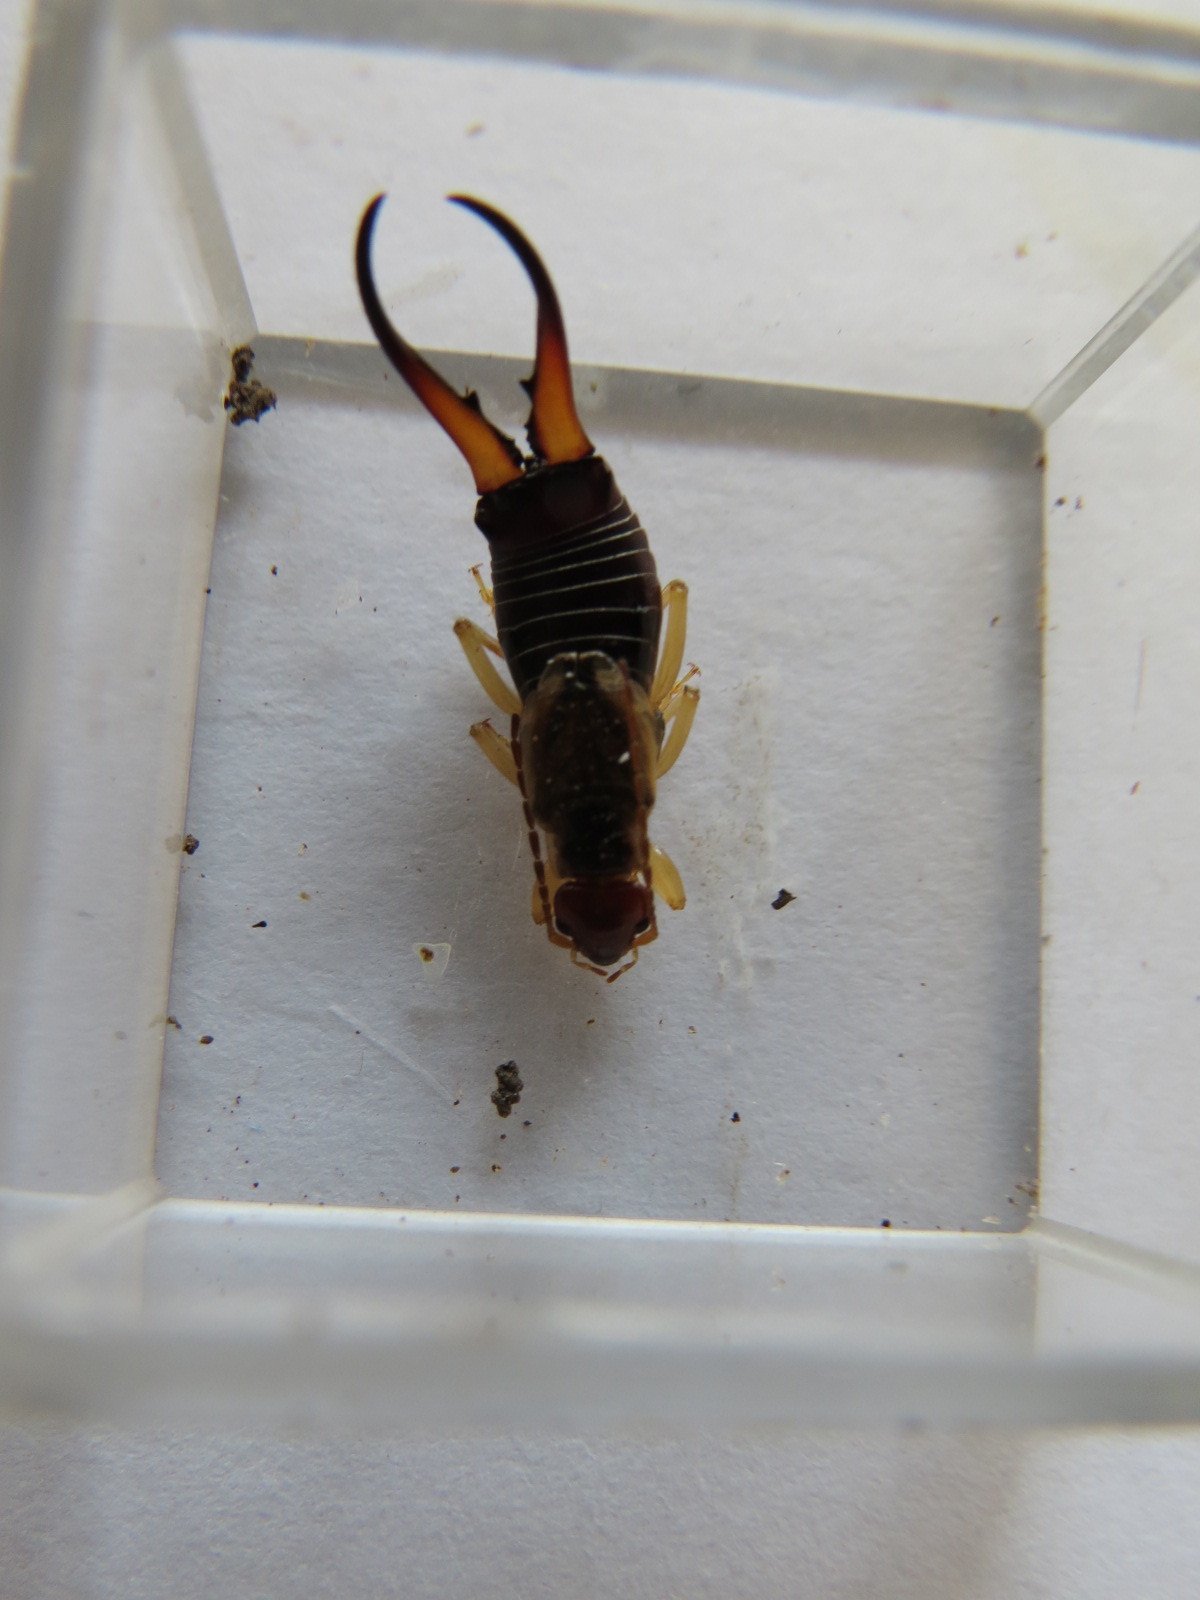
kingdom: Animalia
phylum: Arthropoda
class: Insecta
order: Dermaptera
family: Forficulidae
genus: Forficula
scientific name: Forficula
